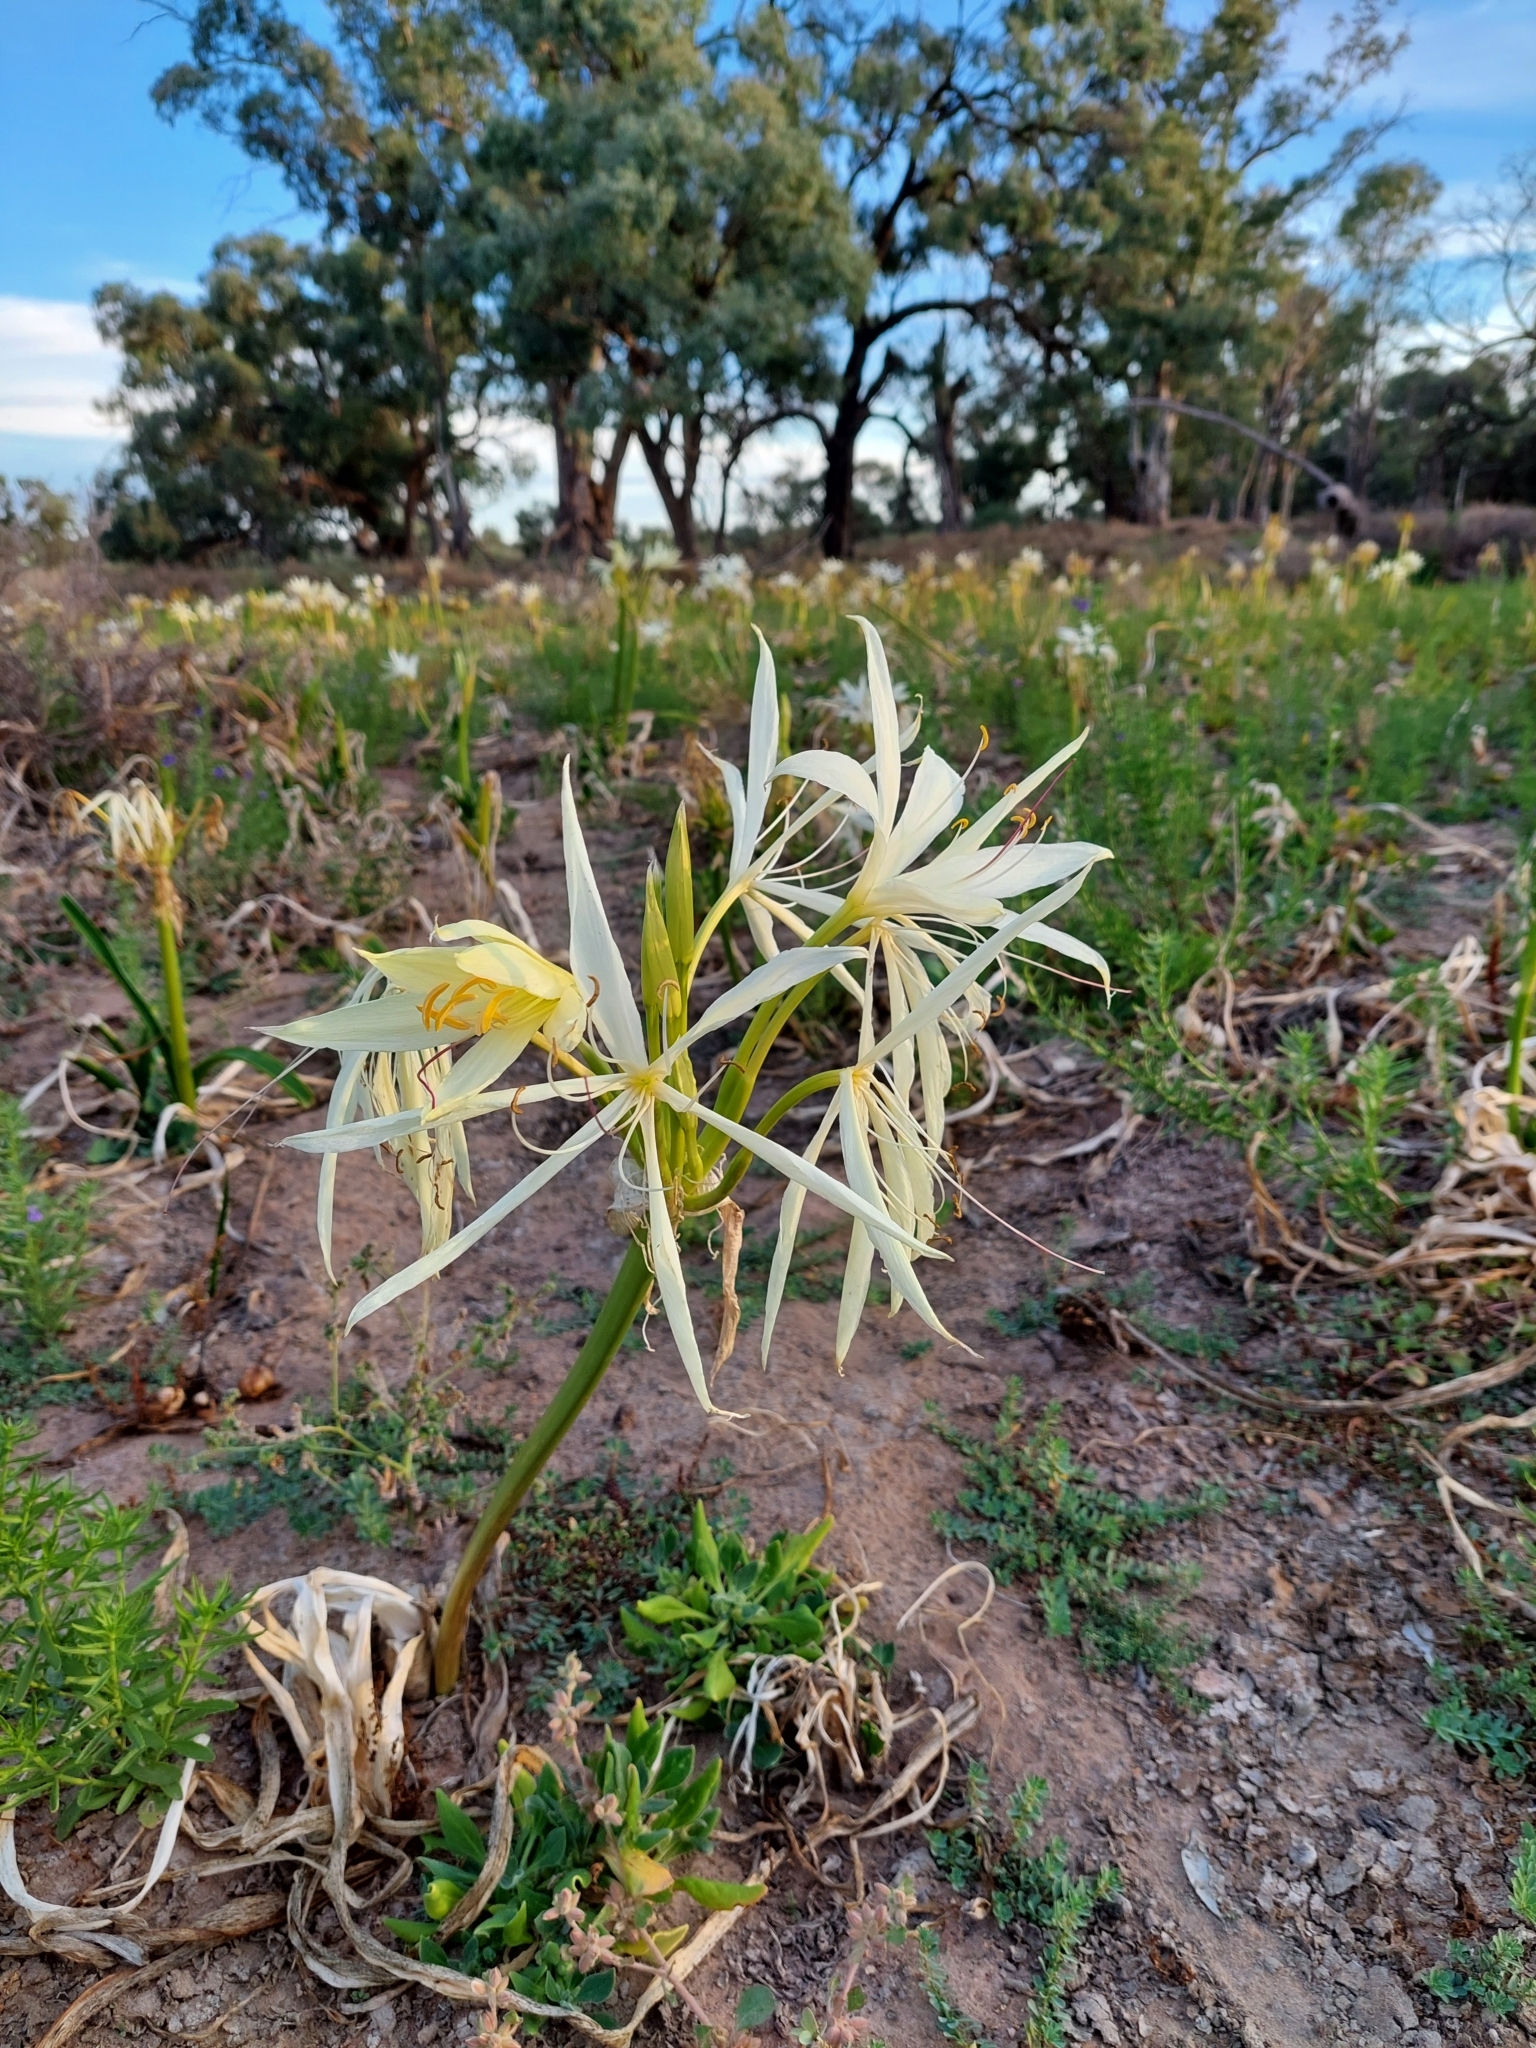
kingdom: Plantae
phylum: Tracheophyta
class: Liliopsida
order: Asparagales
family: Amaryllidaceae
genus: Crinum
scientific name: Crinum flaccidum
